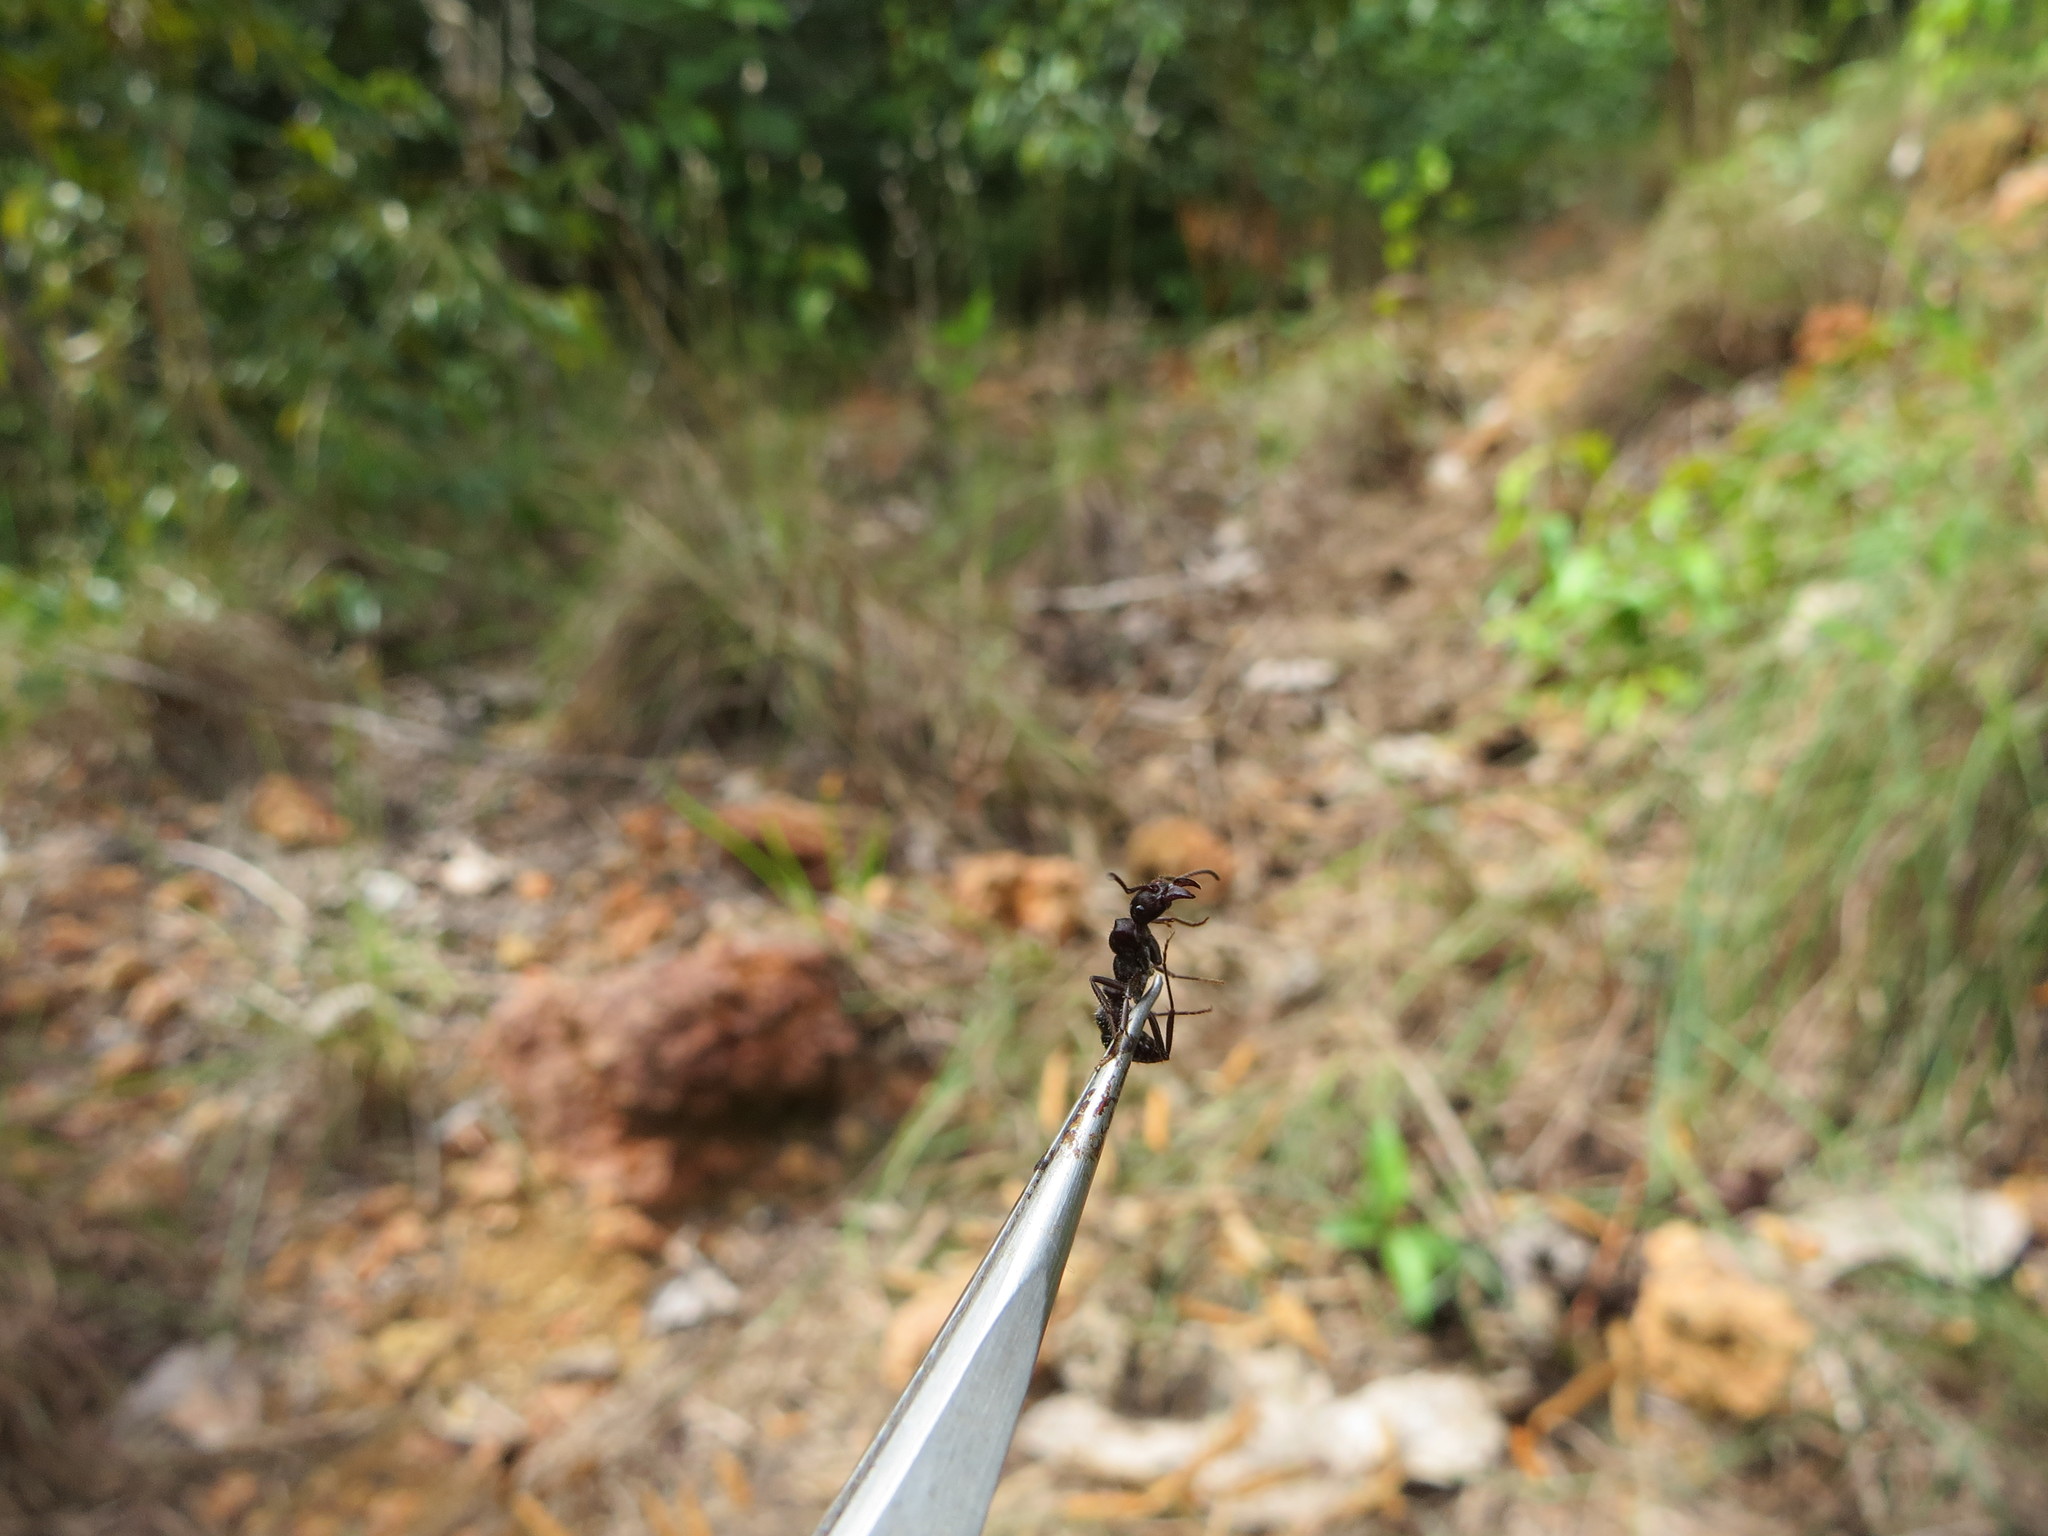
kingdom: Animalia
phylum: Arthropoda
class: Insecta
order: Hymenoptera
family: Formicidae
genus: Ectatomma
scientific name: Ectatomma brunneum
